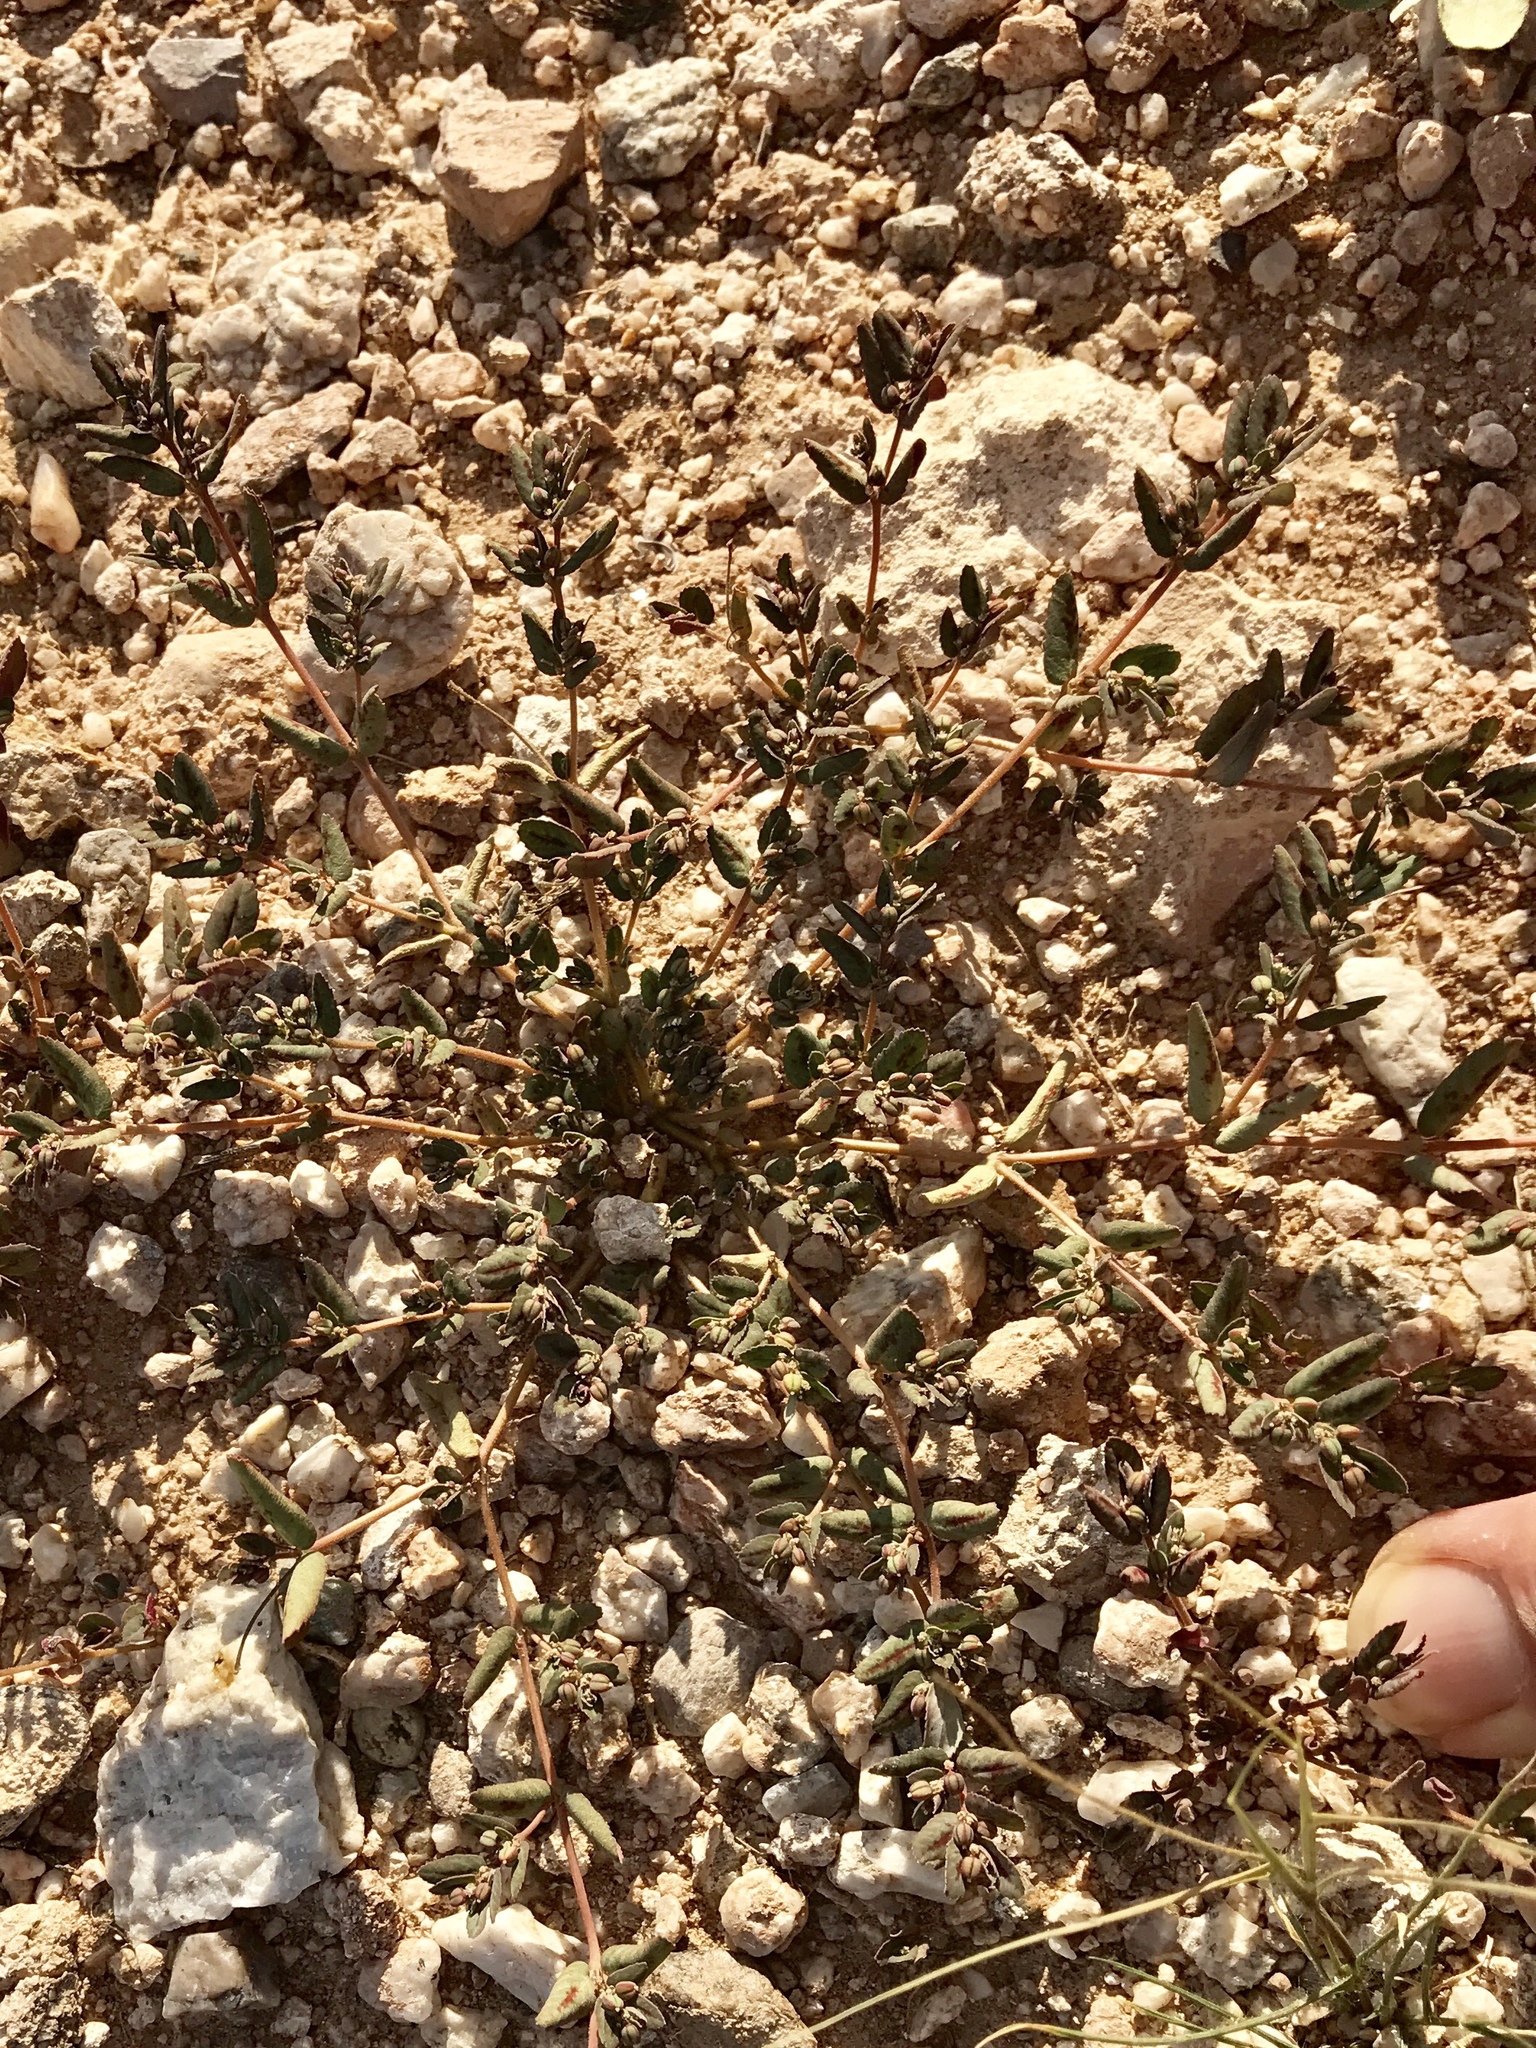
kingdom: Plantae
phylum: Tracheophyta
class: Magnoliopsida
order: Malpighiales
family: Euphorbiaceae
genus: Euphorbia
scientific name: Euphorbia abramsiana
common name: Abram's spurge
